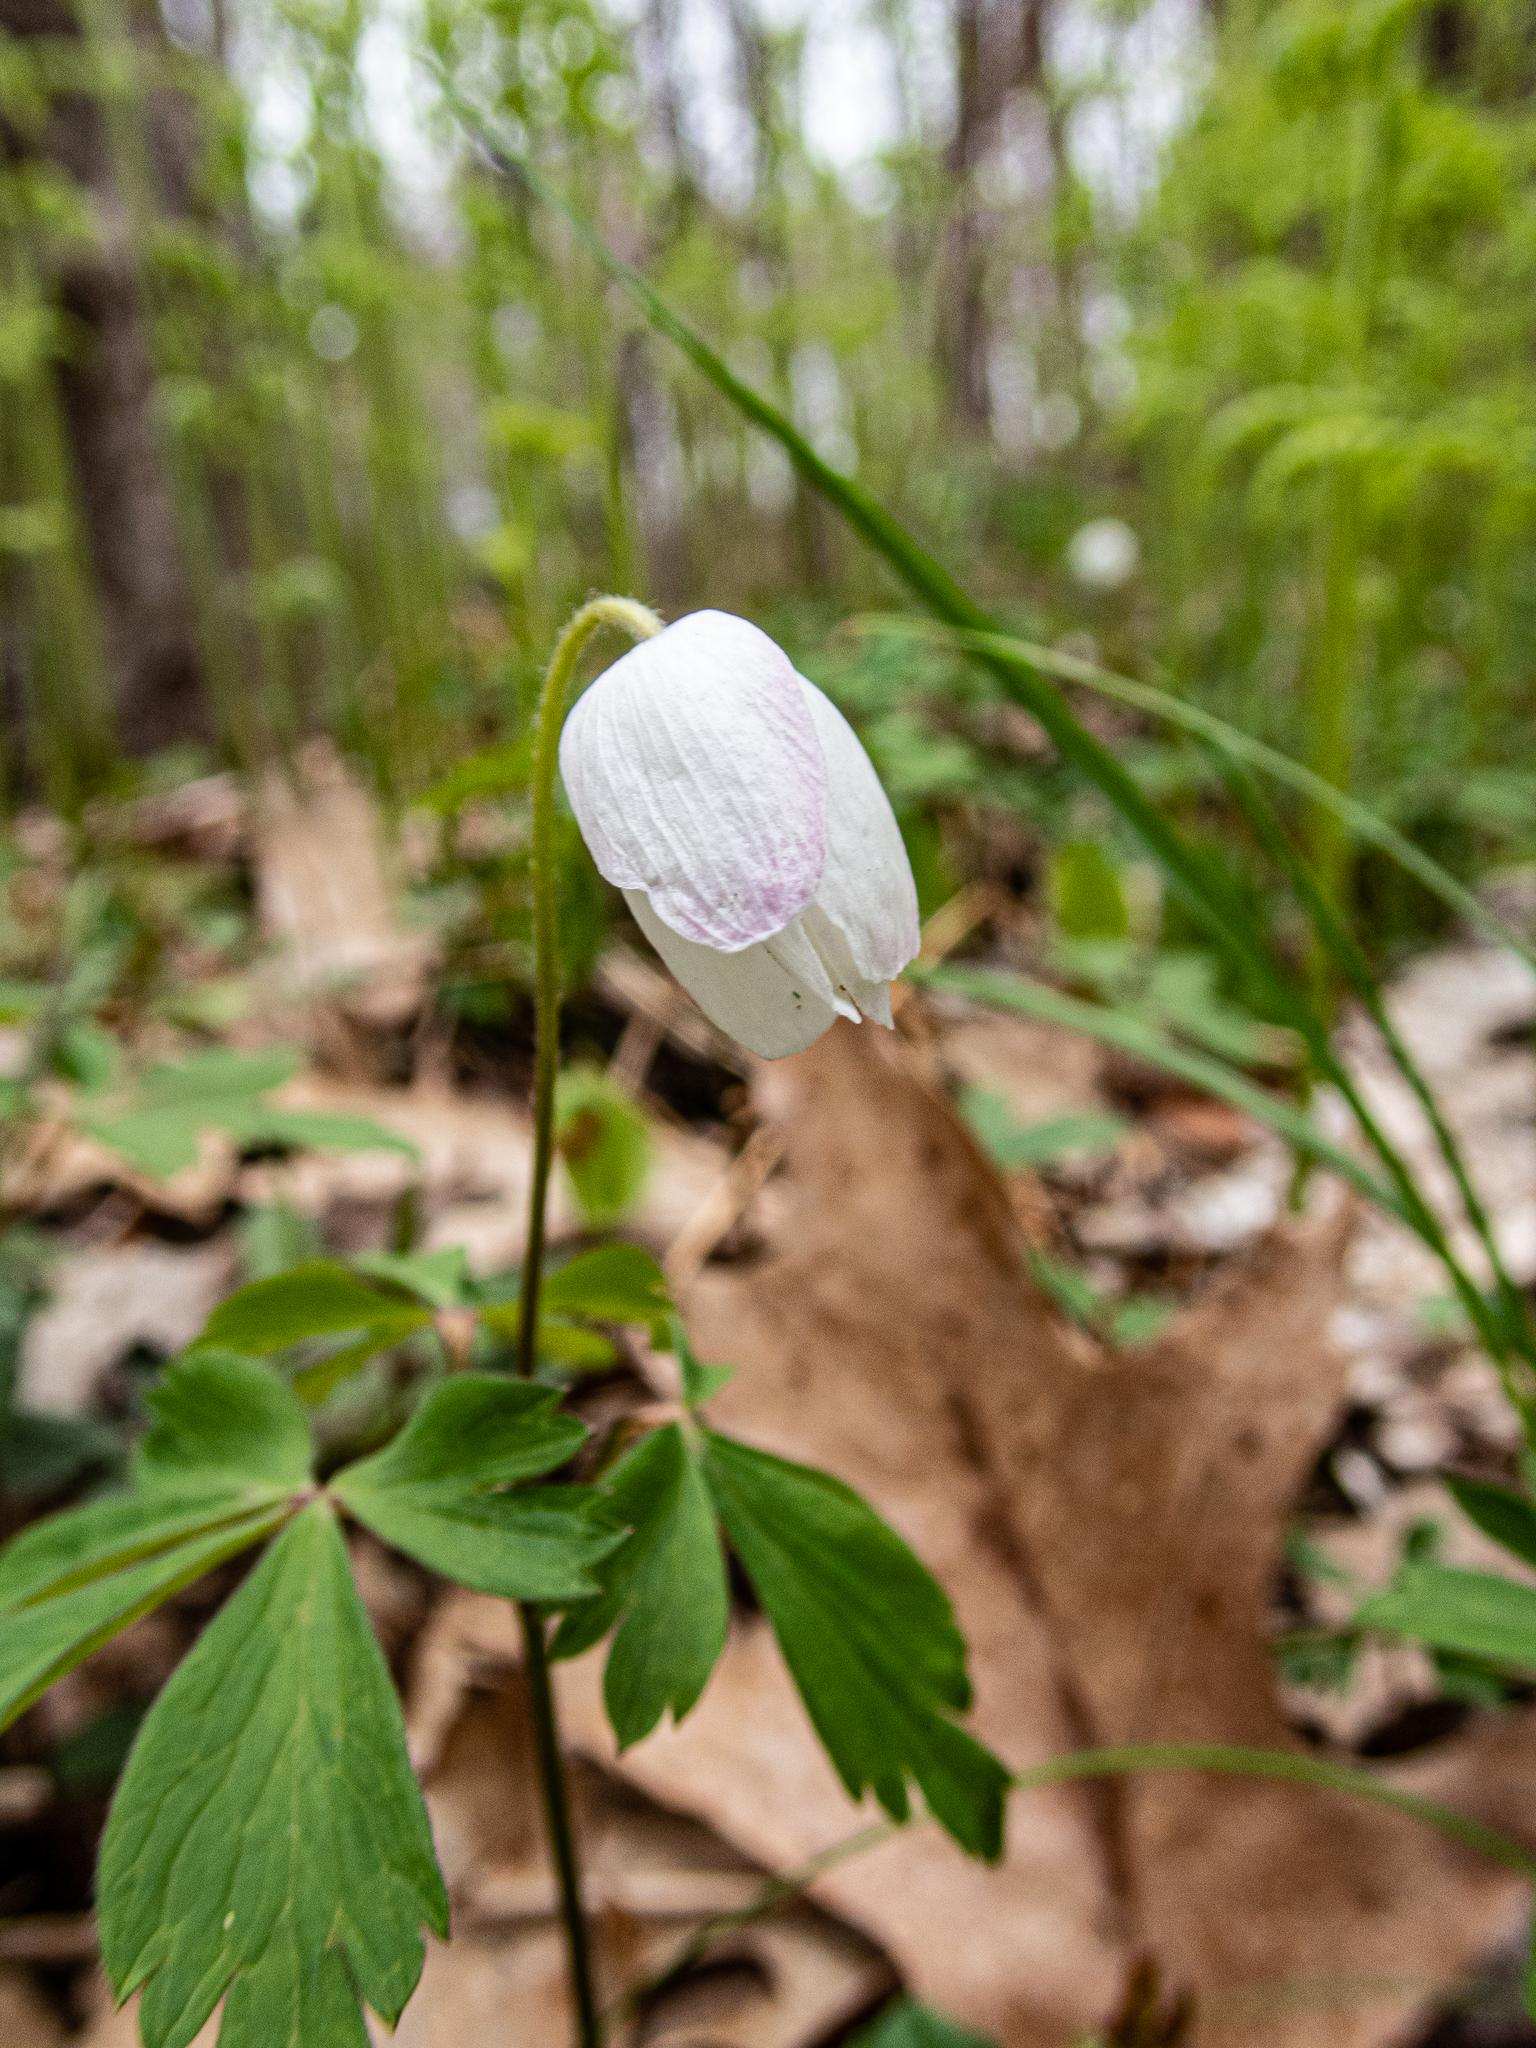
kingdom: Plantae
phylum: Tracheophyta
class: Magnoliopsida
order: Ranunculales
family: Ranunculaceae
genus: Anemone
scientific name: Anemone quinquefolia
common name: Wood anemone
